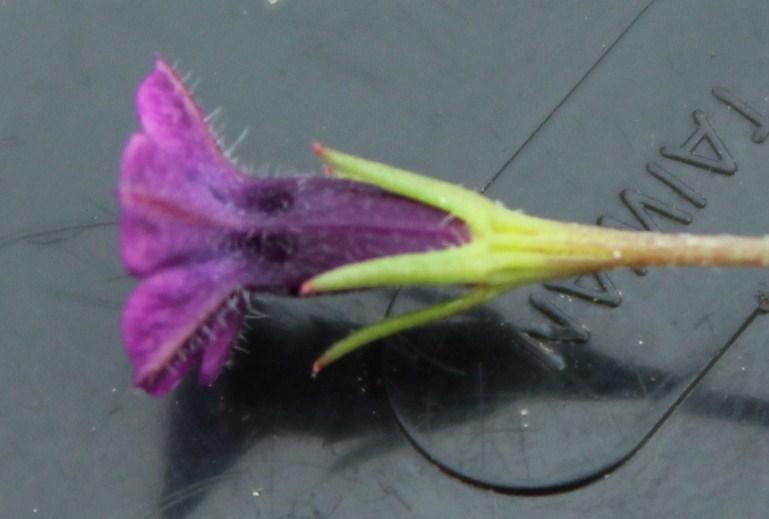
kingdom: Plantae
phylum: Tracheophyta
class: Magnoliopsida
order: Asterales
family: Campanulaceae
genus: Monopsis
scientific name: Monopsis debilis
